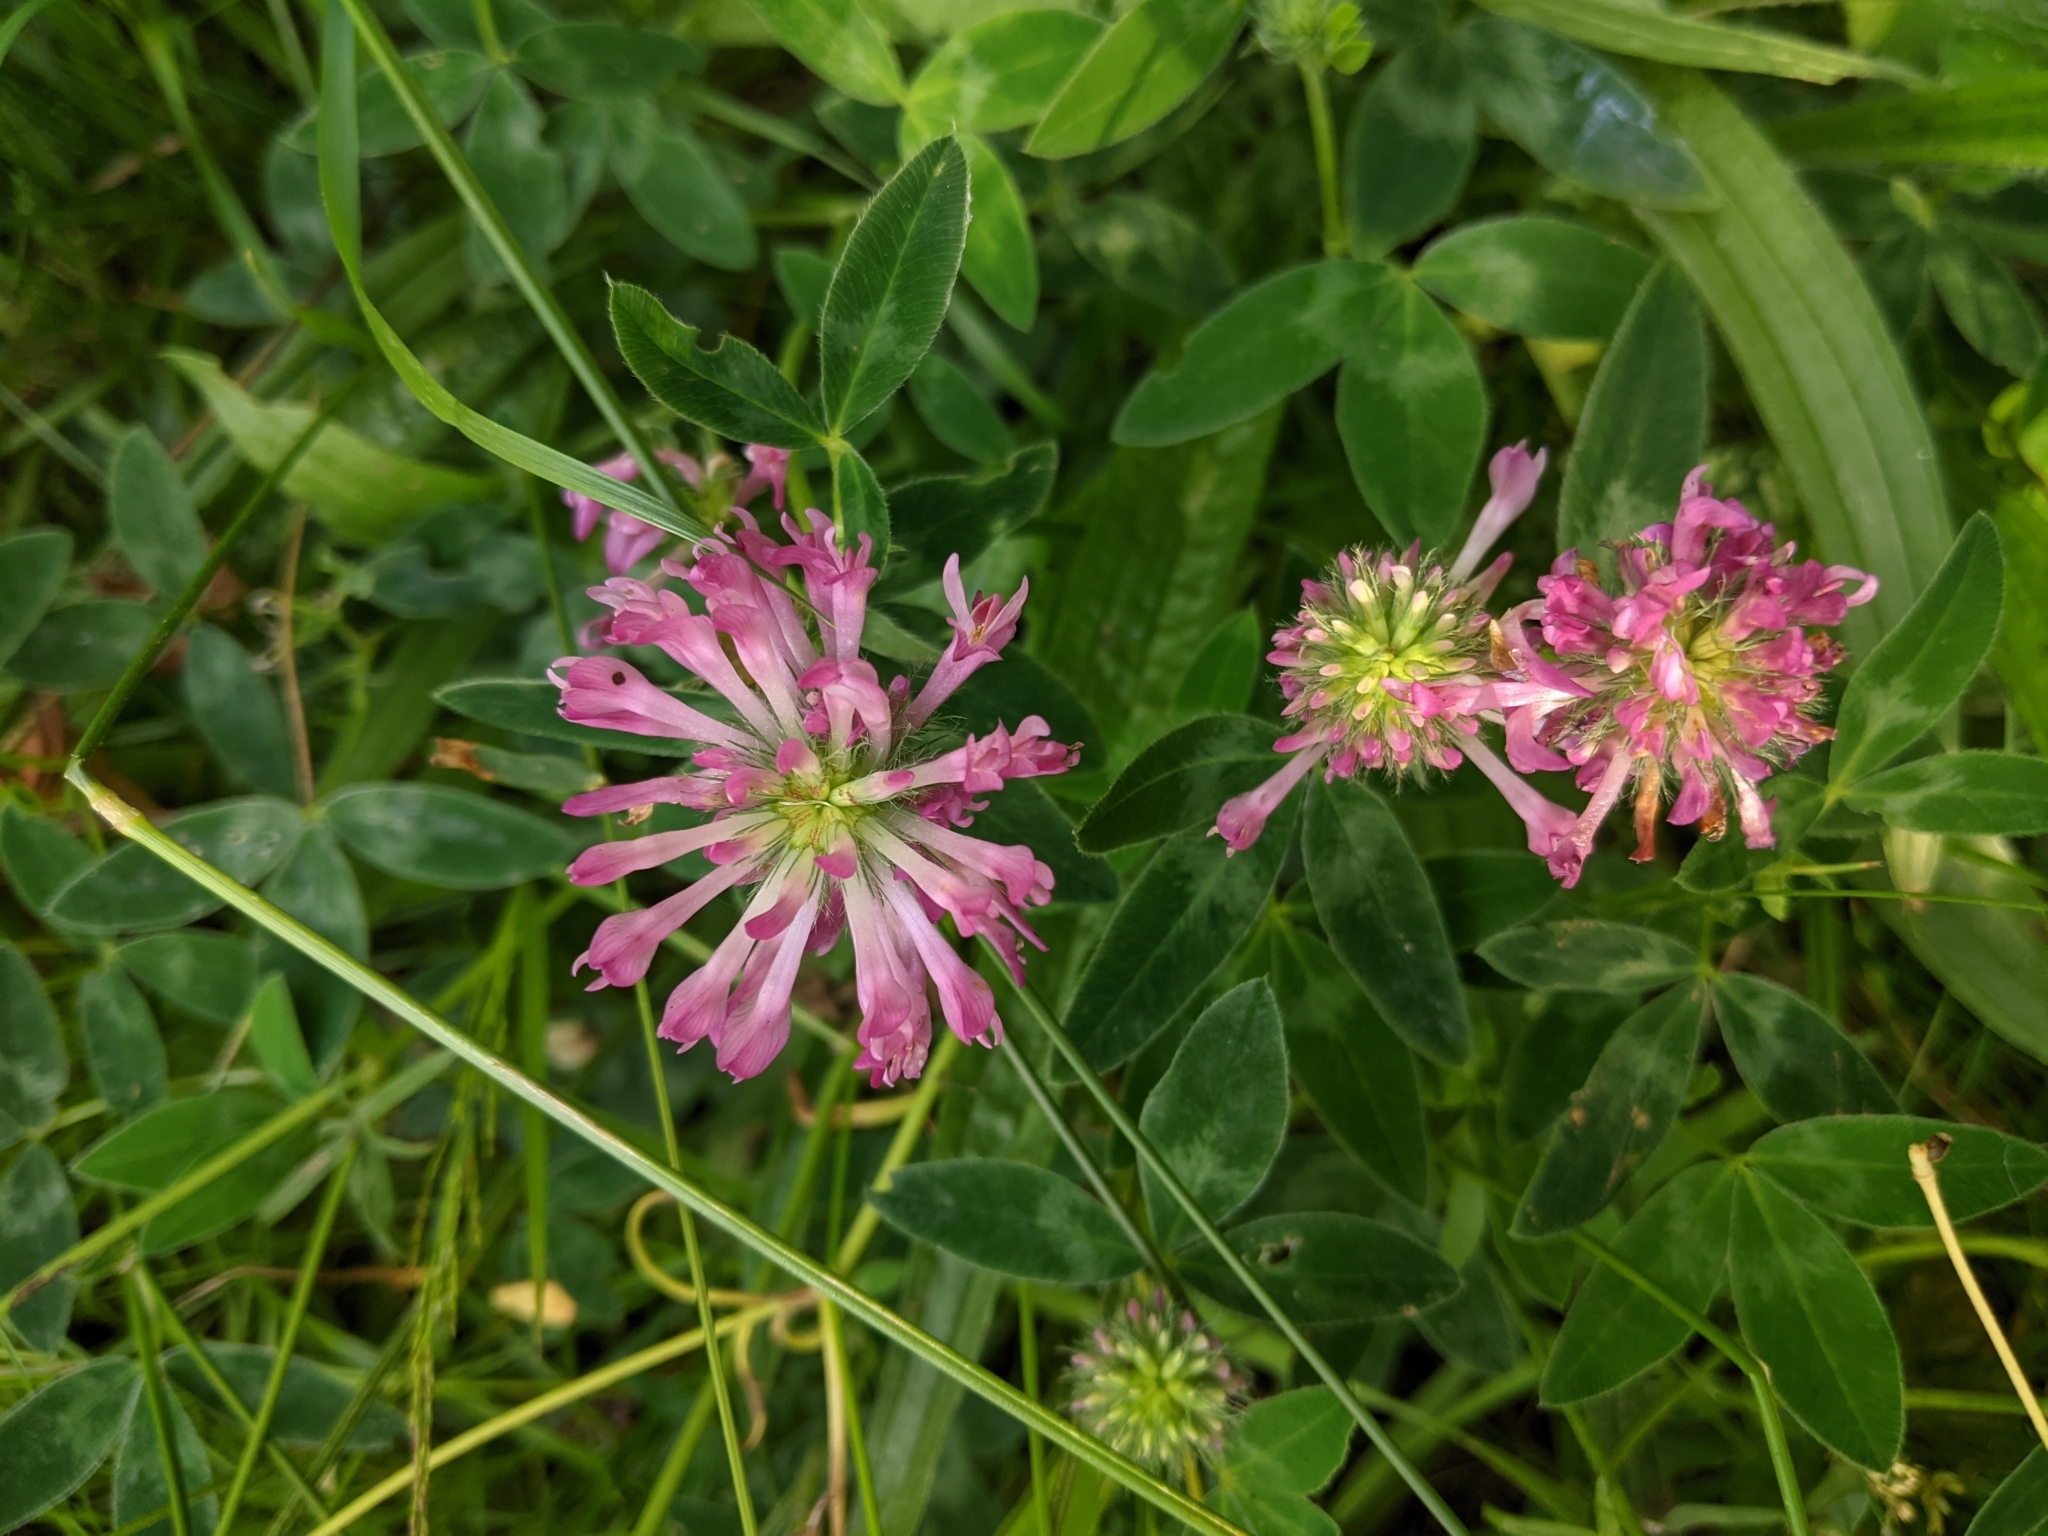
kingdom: Plantae
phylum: Tracheophyta
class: Magnoliopsida
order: Fabales
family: Fabaceae
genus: Trifolium
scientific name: Trifolium medium
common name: Zigzag clover
